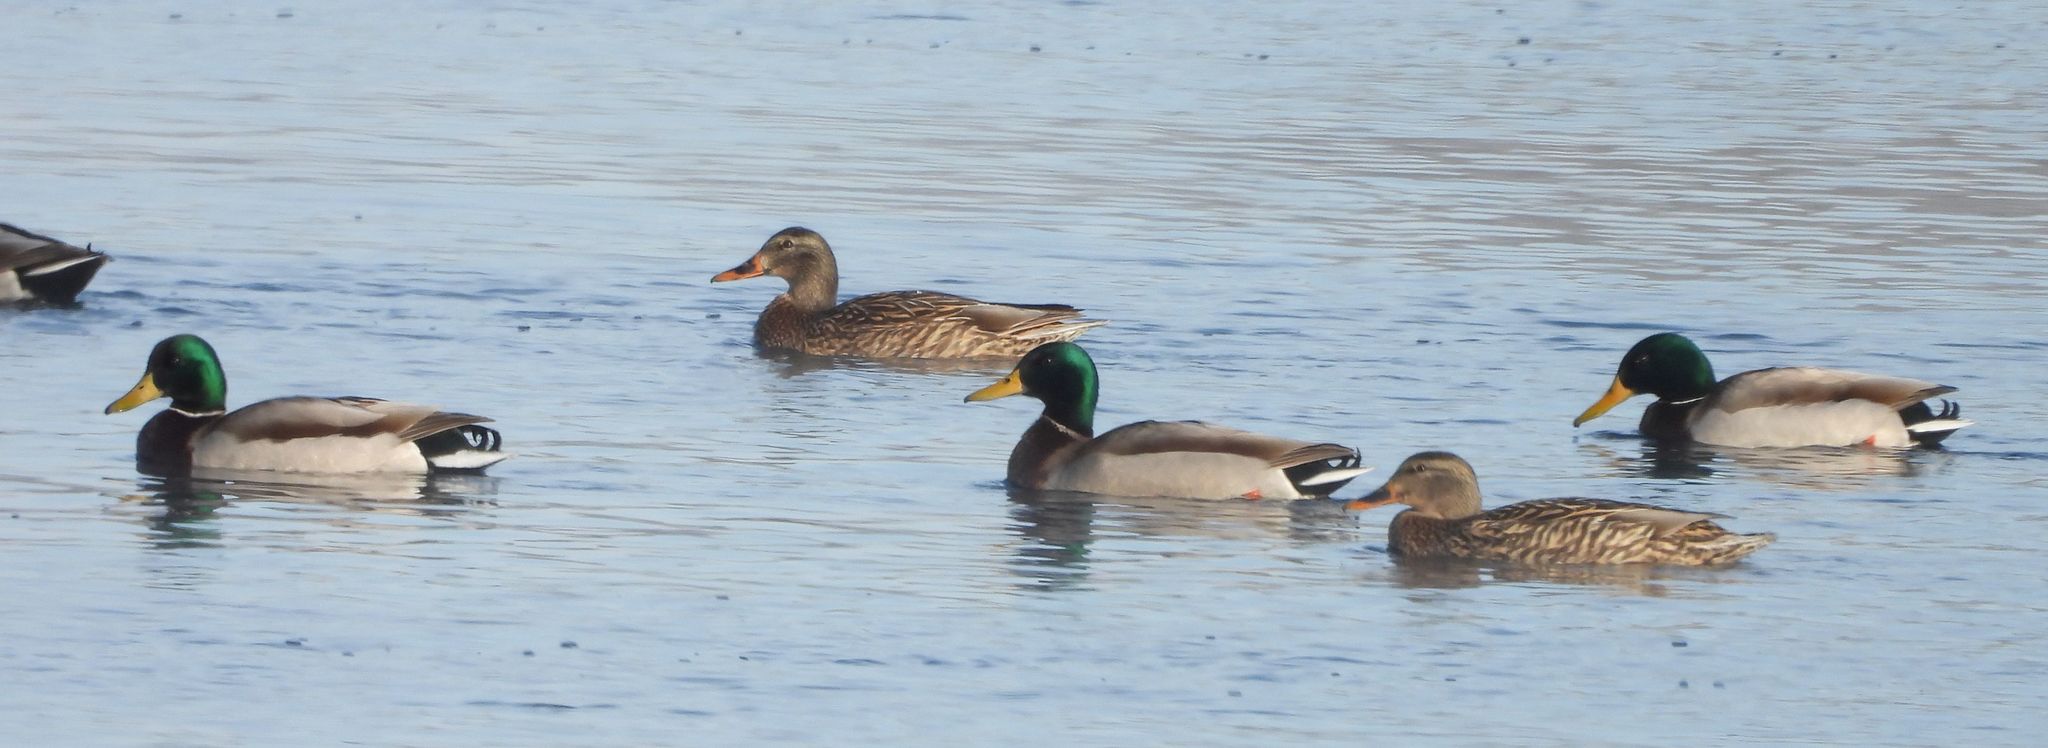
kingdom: Animalia
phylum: Chordata
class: Aves
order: Anseriformes
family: Anatidae
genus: Anas
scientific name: Anas platyrhynchos
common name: Mallard
